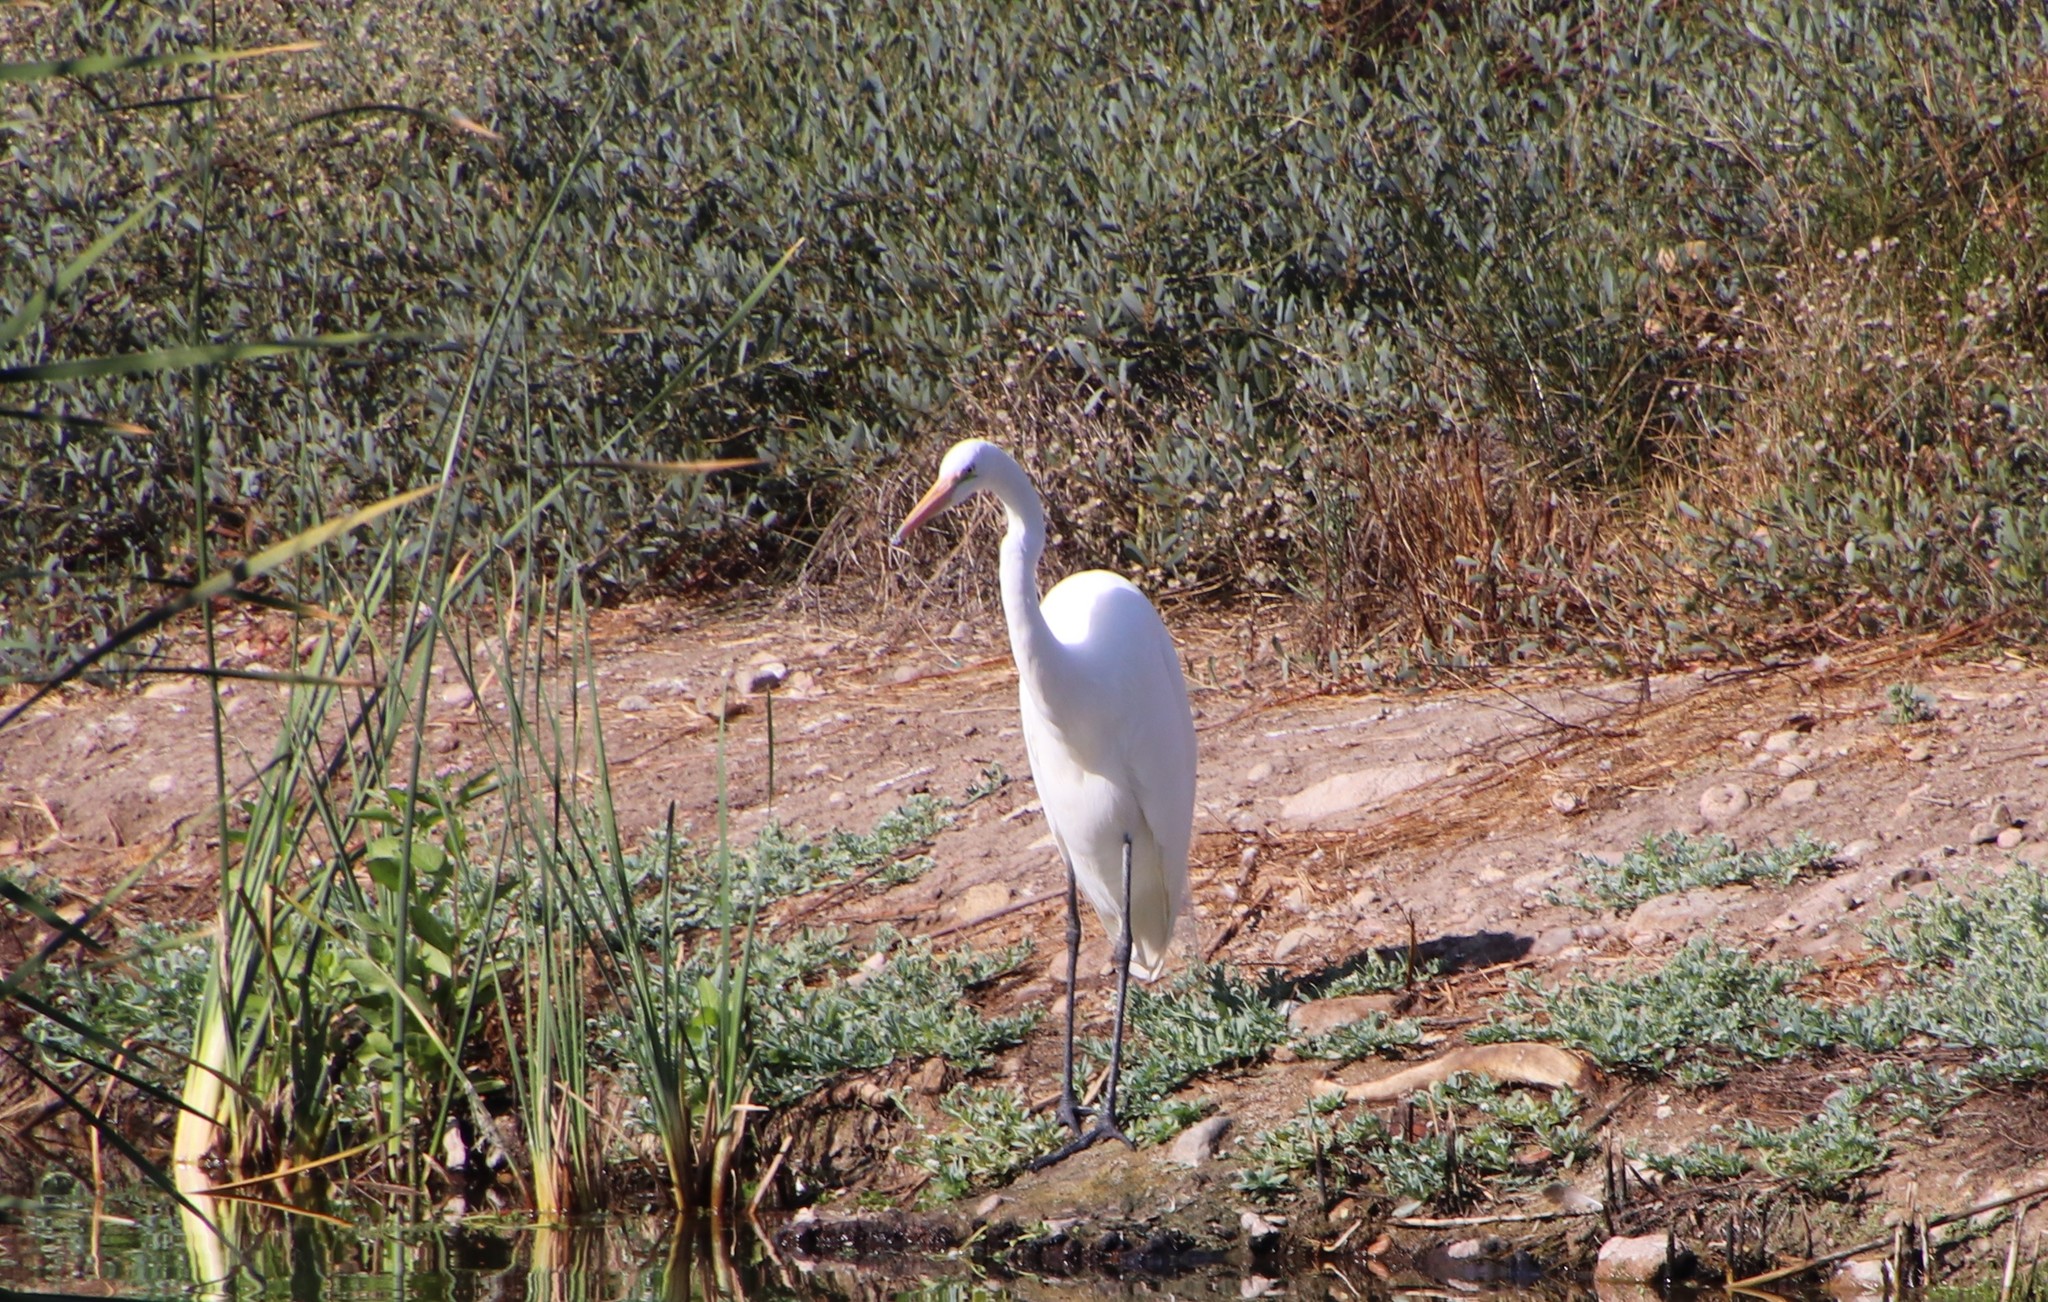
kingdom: Animalia
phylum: Chordata
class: Aves
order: Pelecaniformes
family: Ardeidae
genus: Ardea
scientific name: Ardea alba
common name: Great egret
